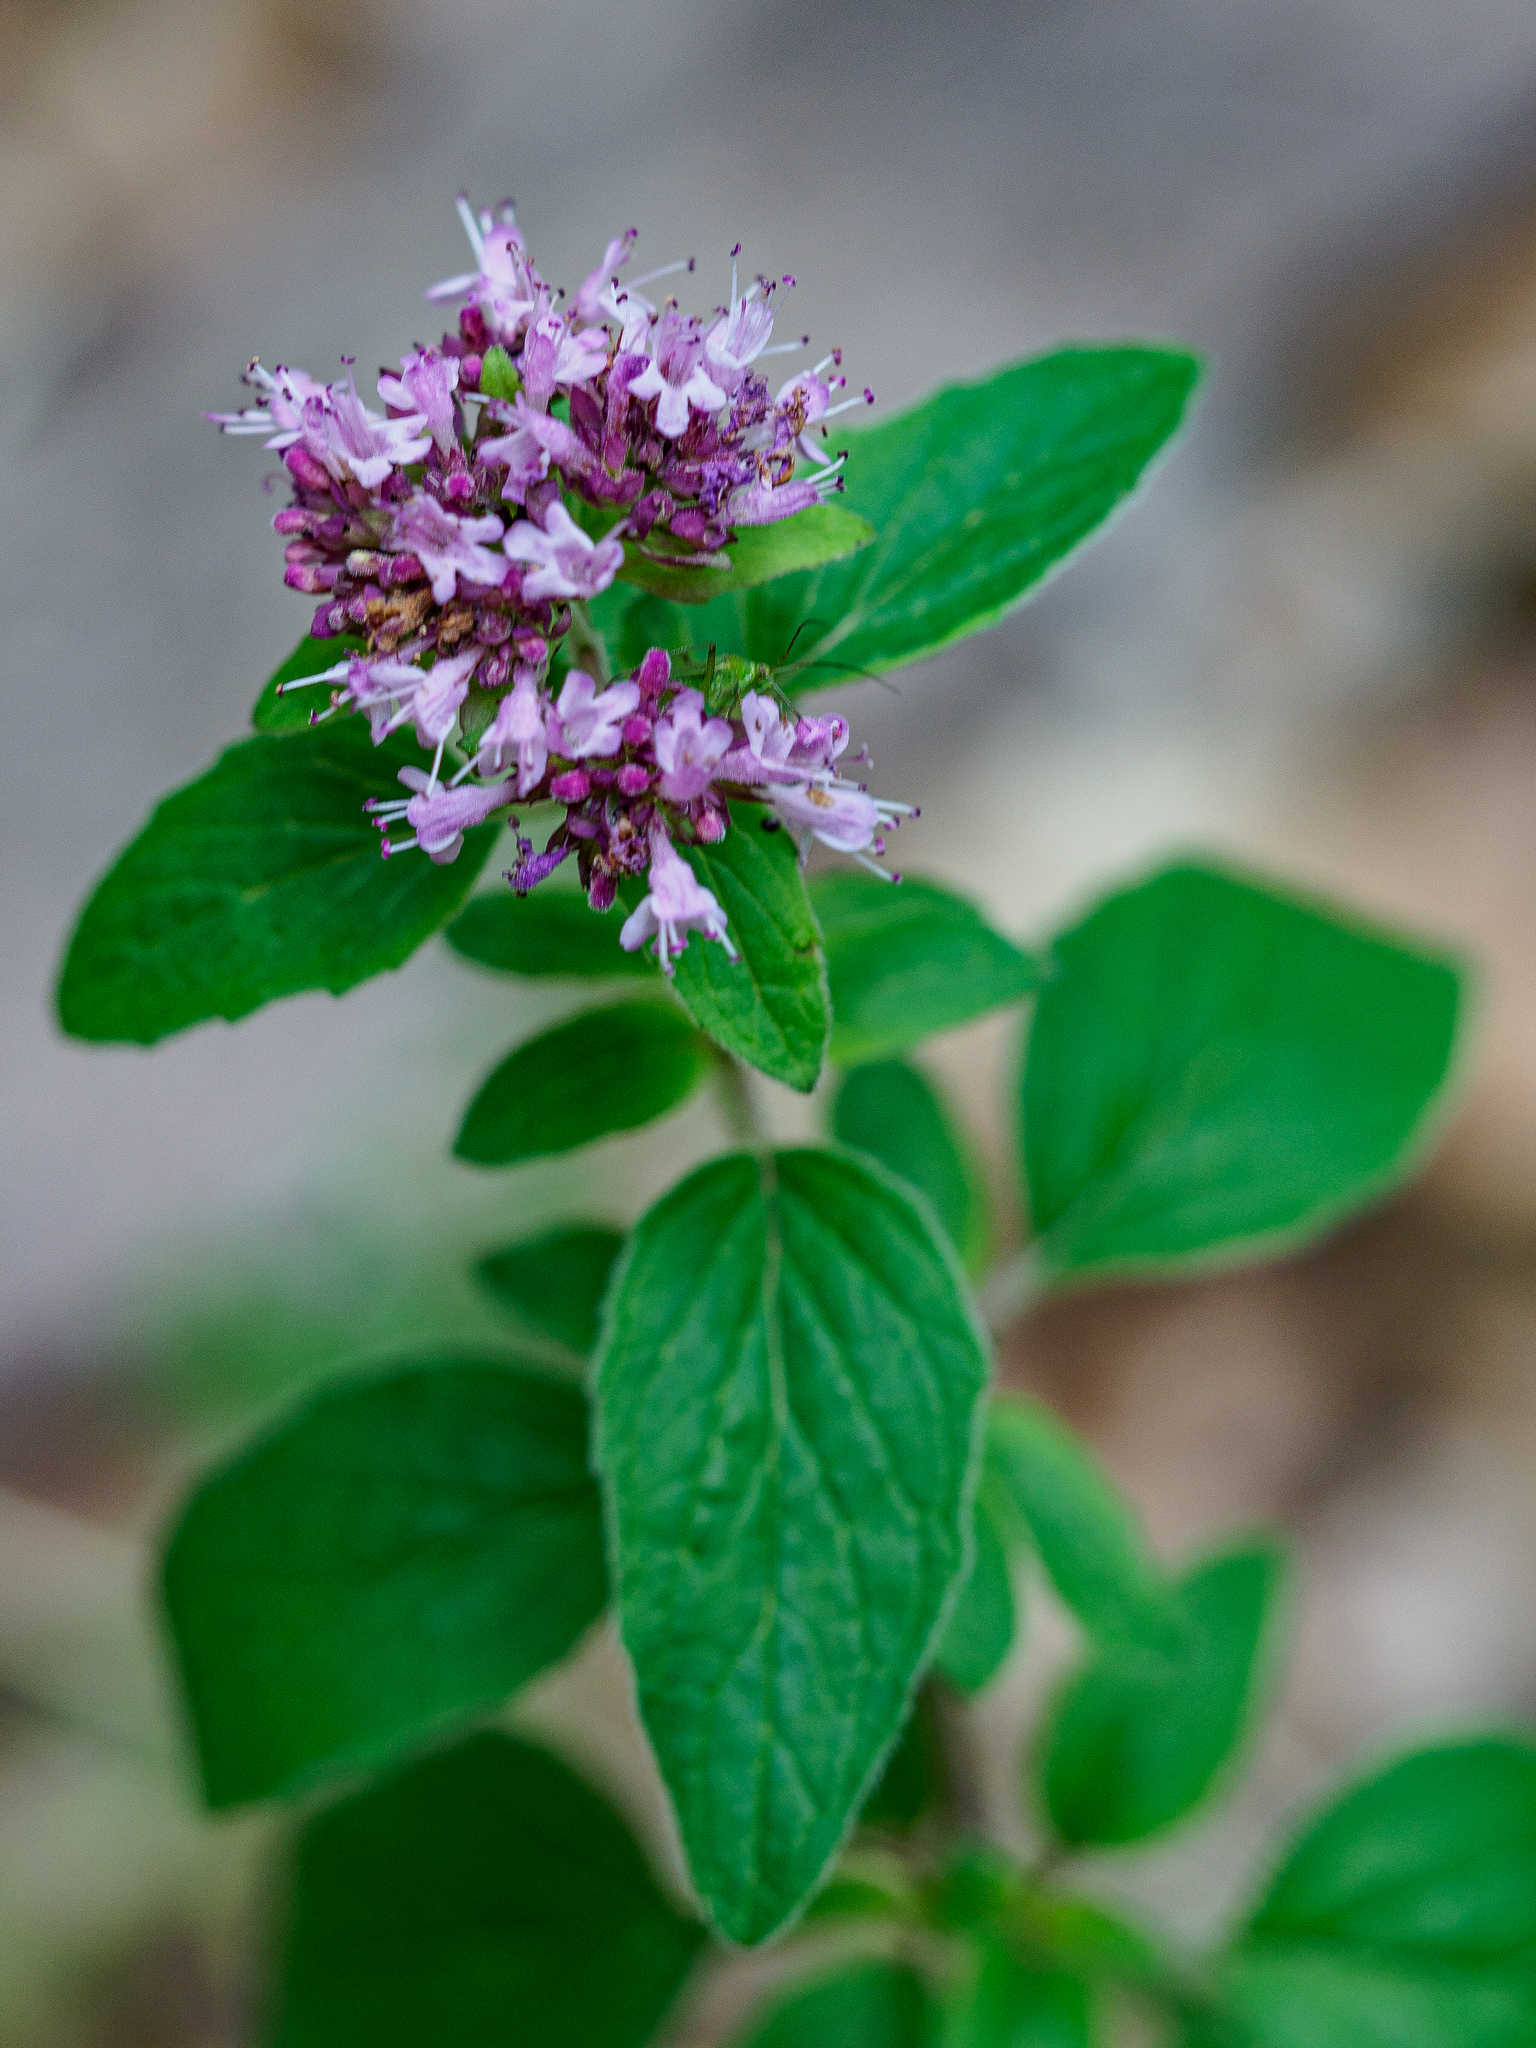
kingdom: Plantae
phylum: Tracheophyta
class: Magnoliopsida
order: Lamiales
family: Lamiaceae
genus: Origanum
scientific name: Origanum vulgare
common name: Wild marjoram
